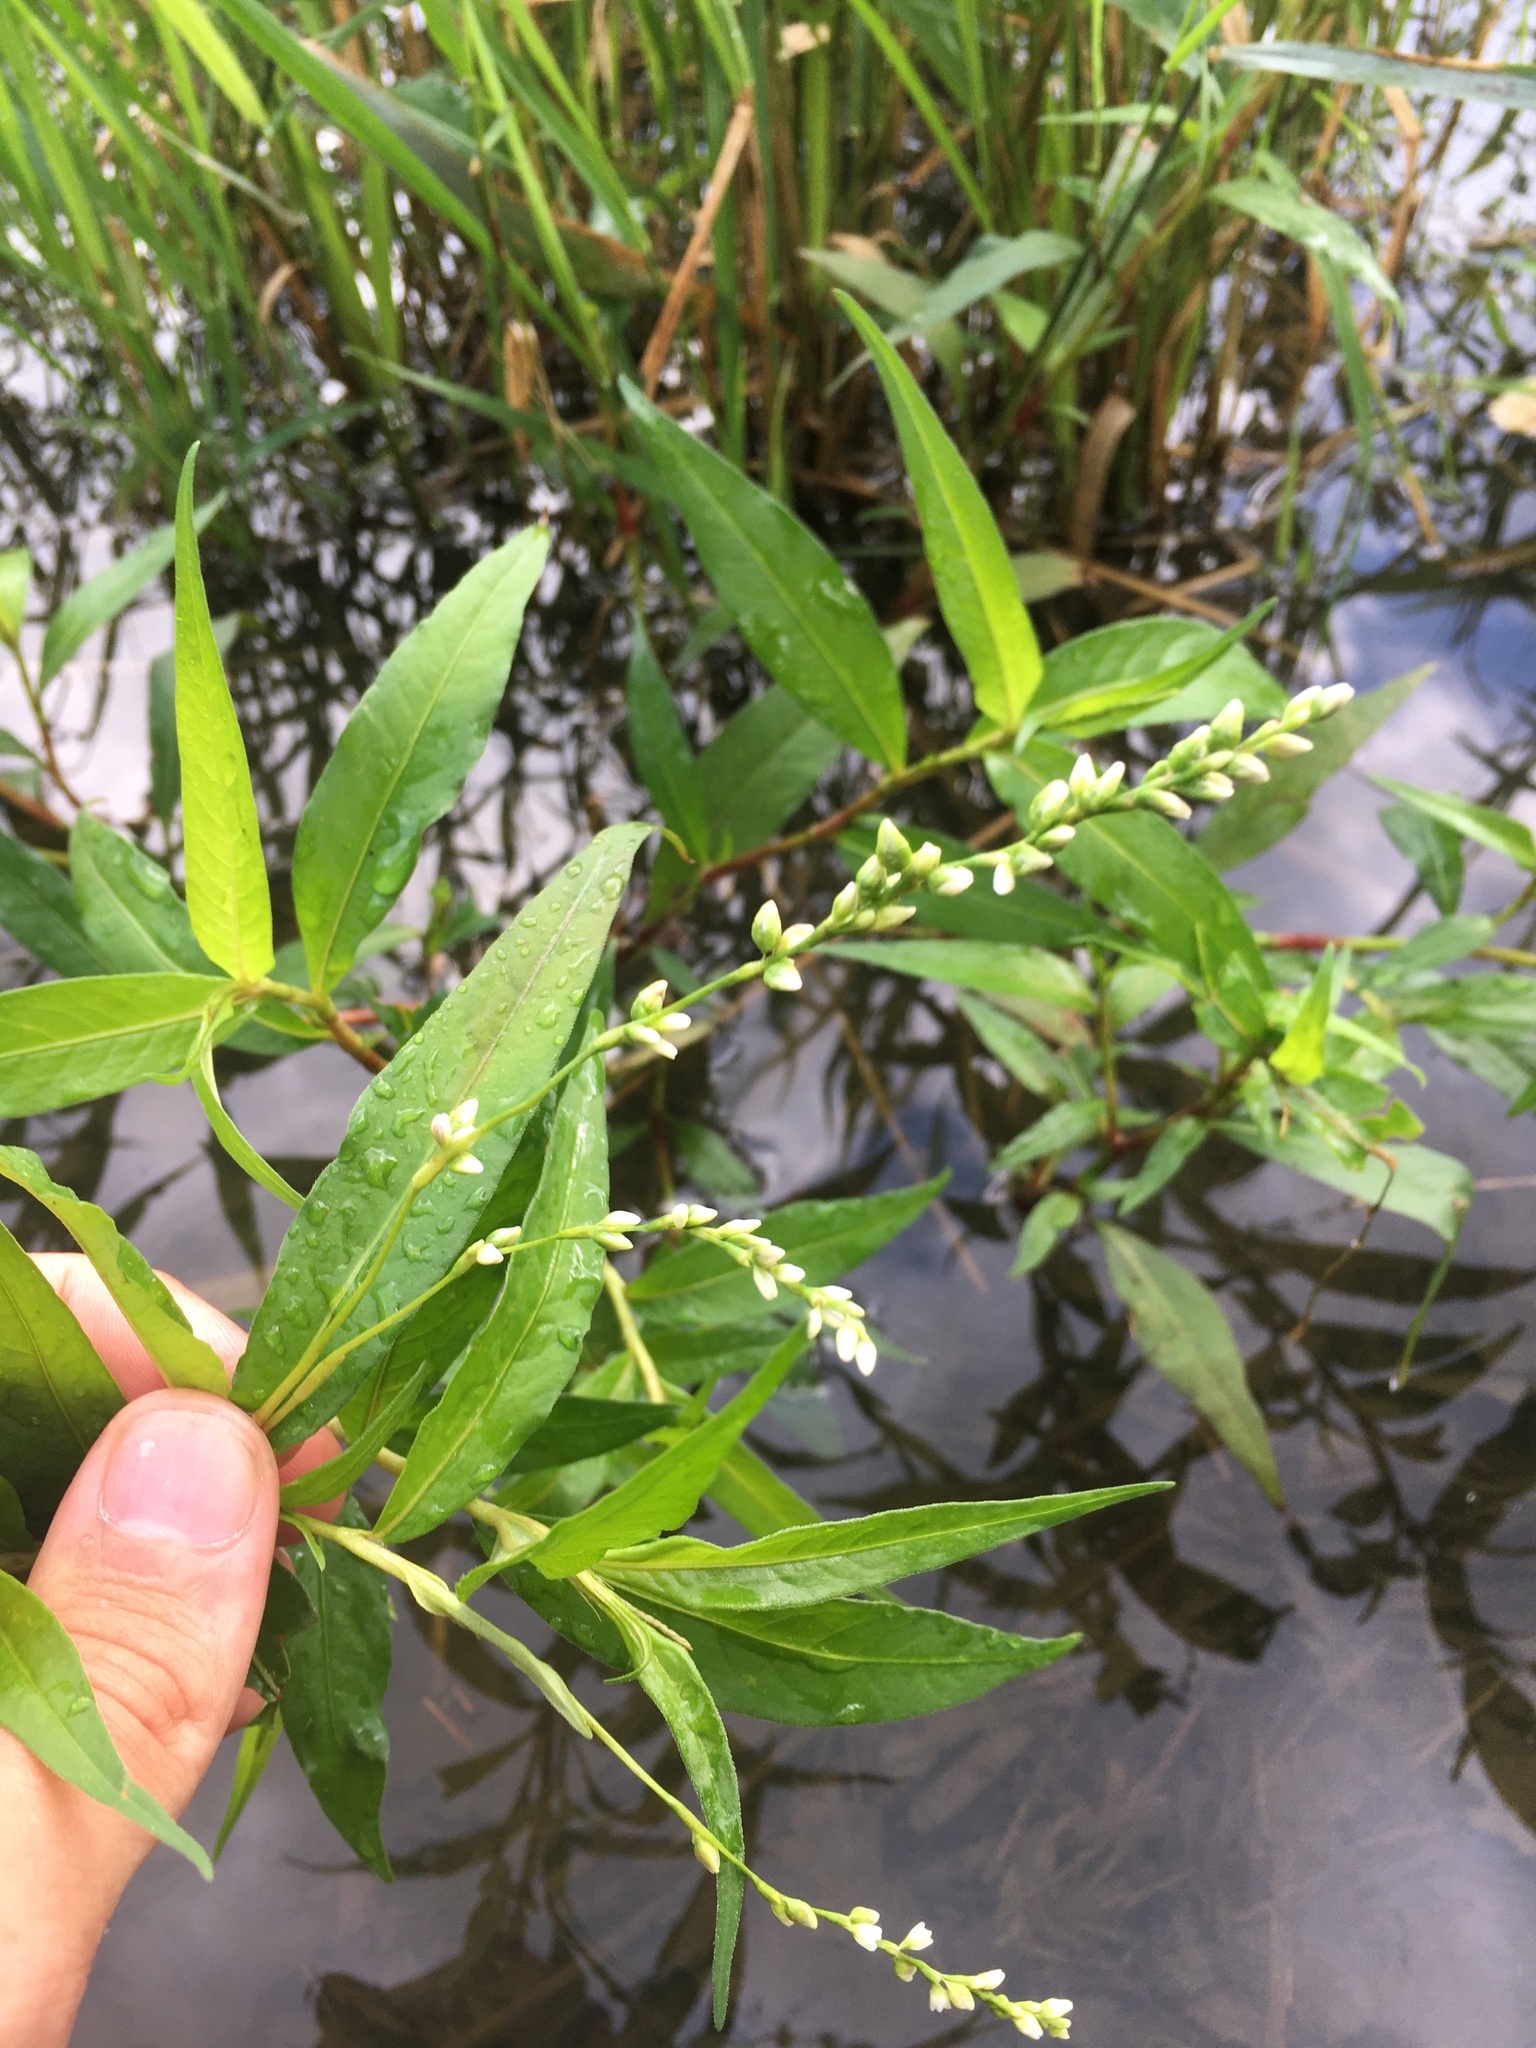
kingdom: Plantae
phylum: Tracheophyta
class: Magnoliopsida
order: Caryophyllales
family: Polygonaceae
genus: Persicaria
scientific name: Persicaria punctata
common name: Dotted smartweed
